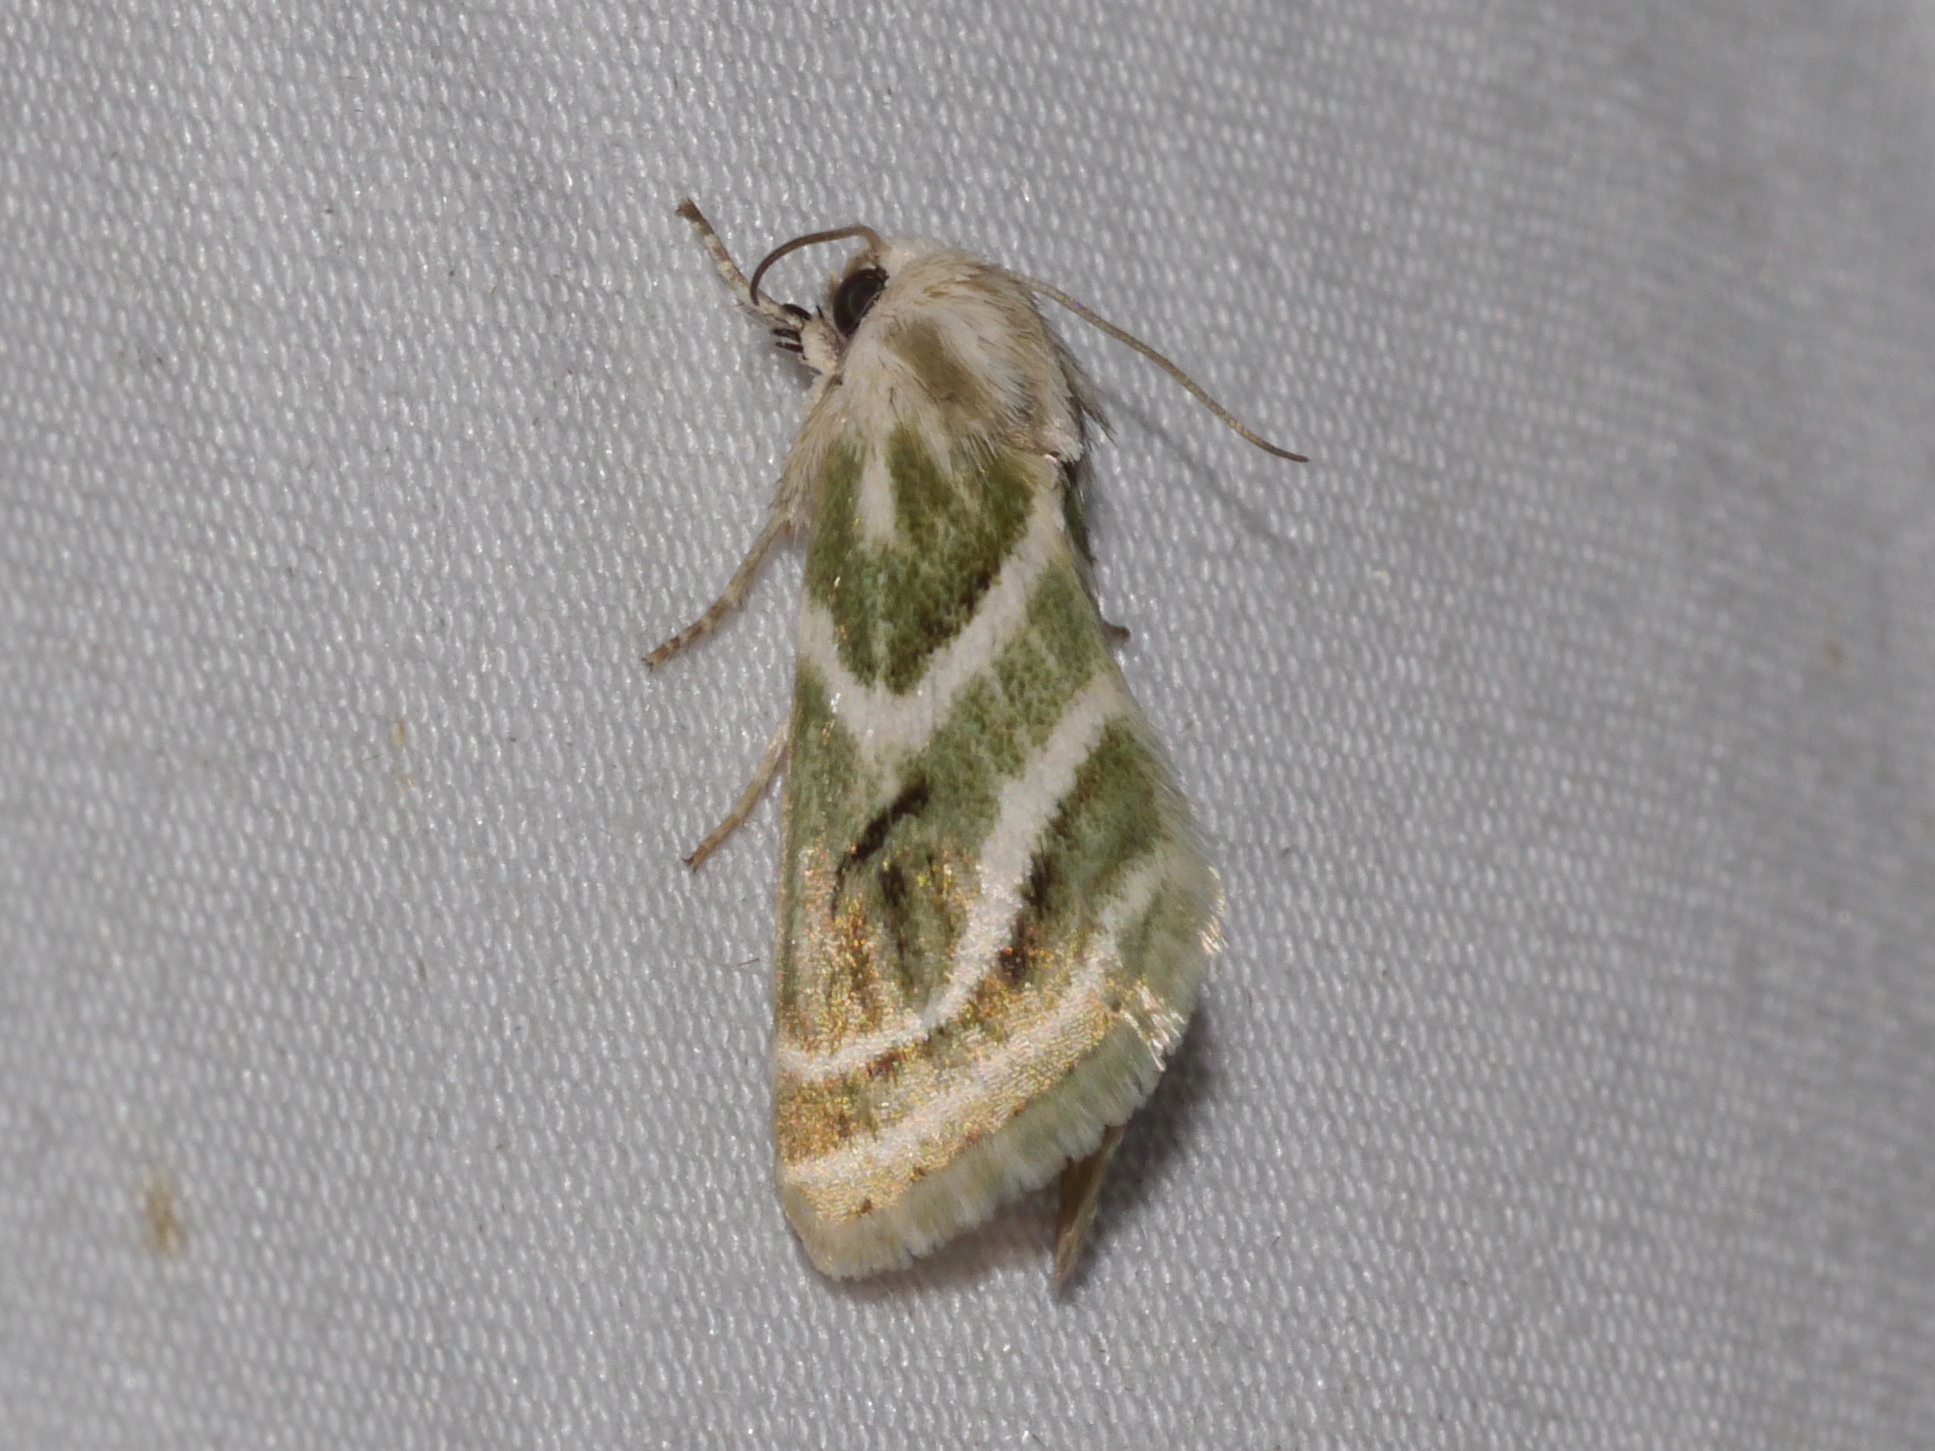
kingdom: Animalia
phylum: Arthropoda
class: Insecta
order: Lepidoptera
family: Noctuidae
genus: Schinia
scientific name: Schinia accessa
